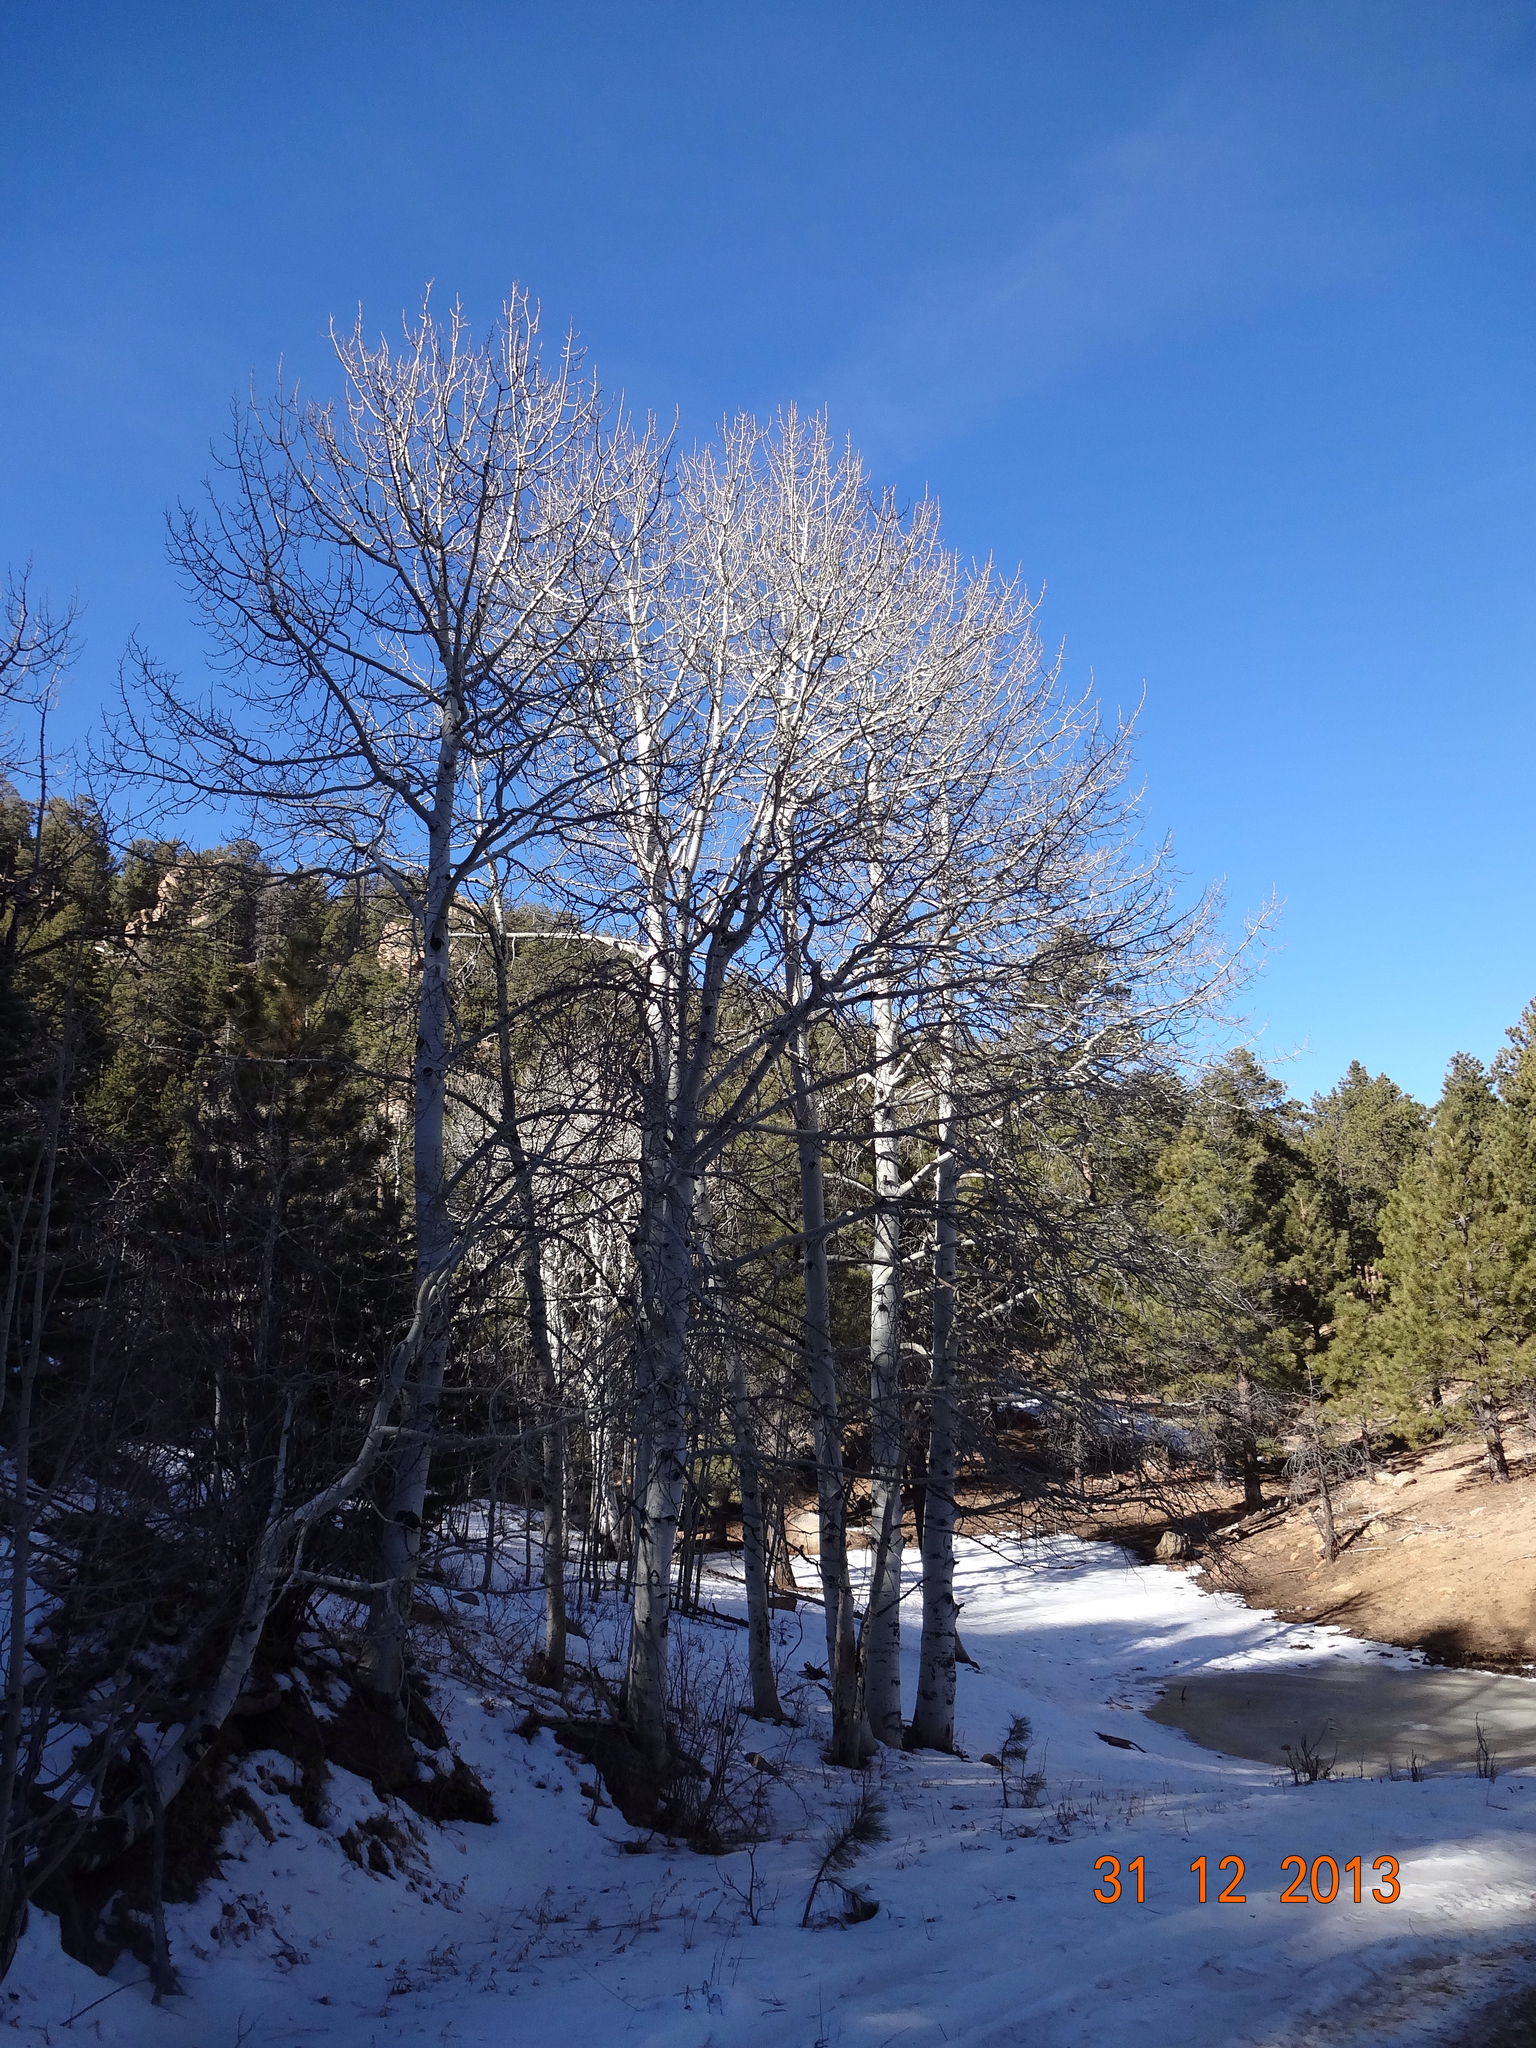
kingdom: Plantae
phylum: Tracheophyta
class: Magnoliopsida
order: Malpighiales
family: Salicaceae
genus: Populus
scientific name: Populus tremuloides
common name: Quaking aspen
